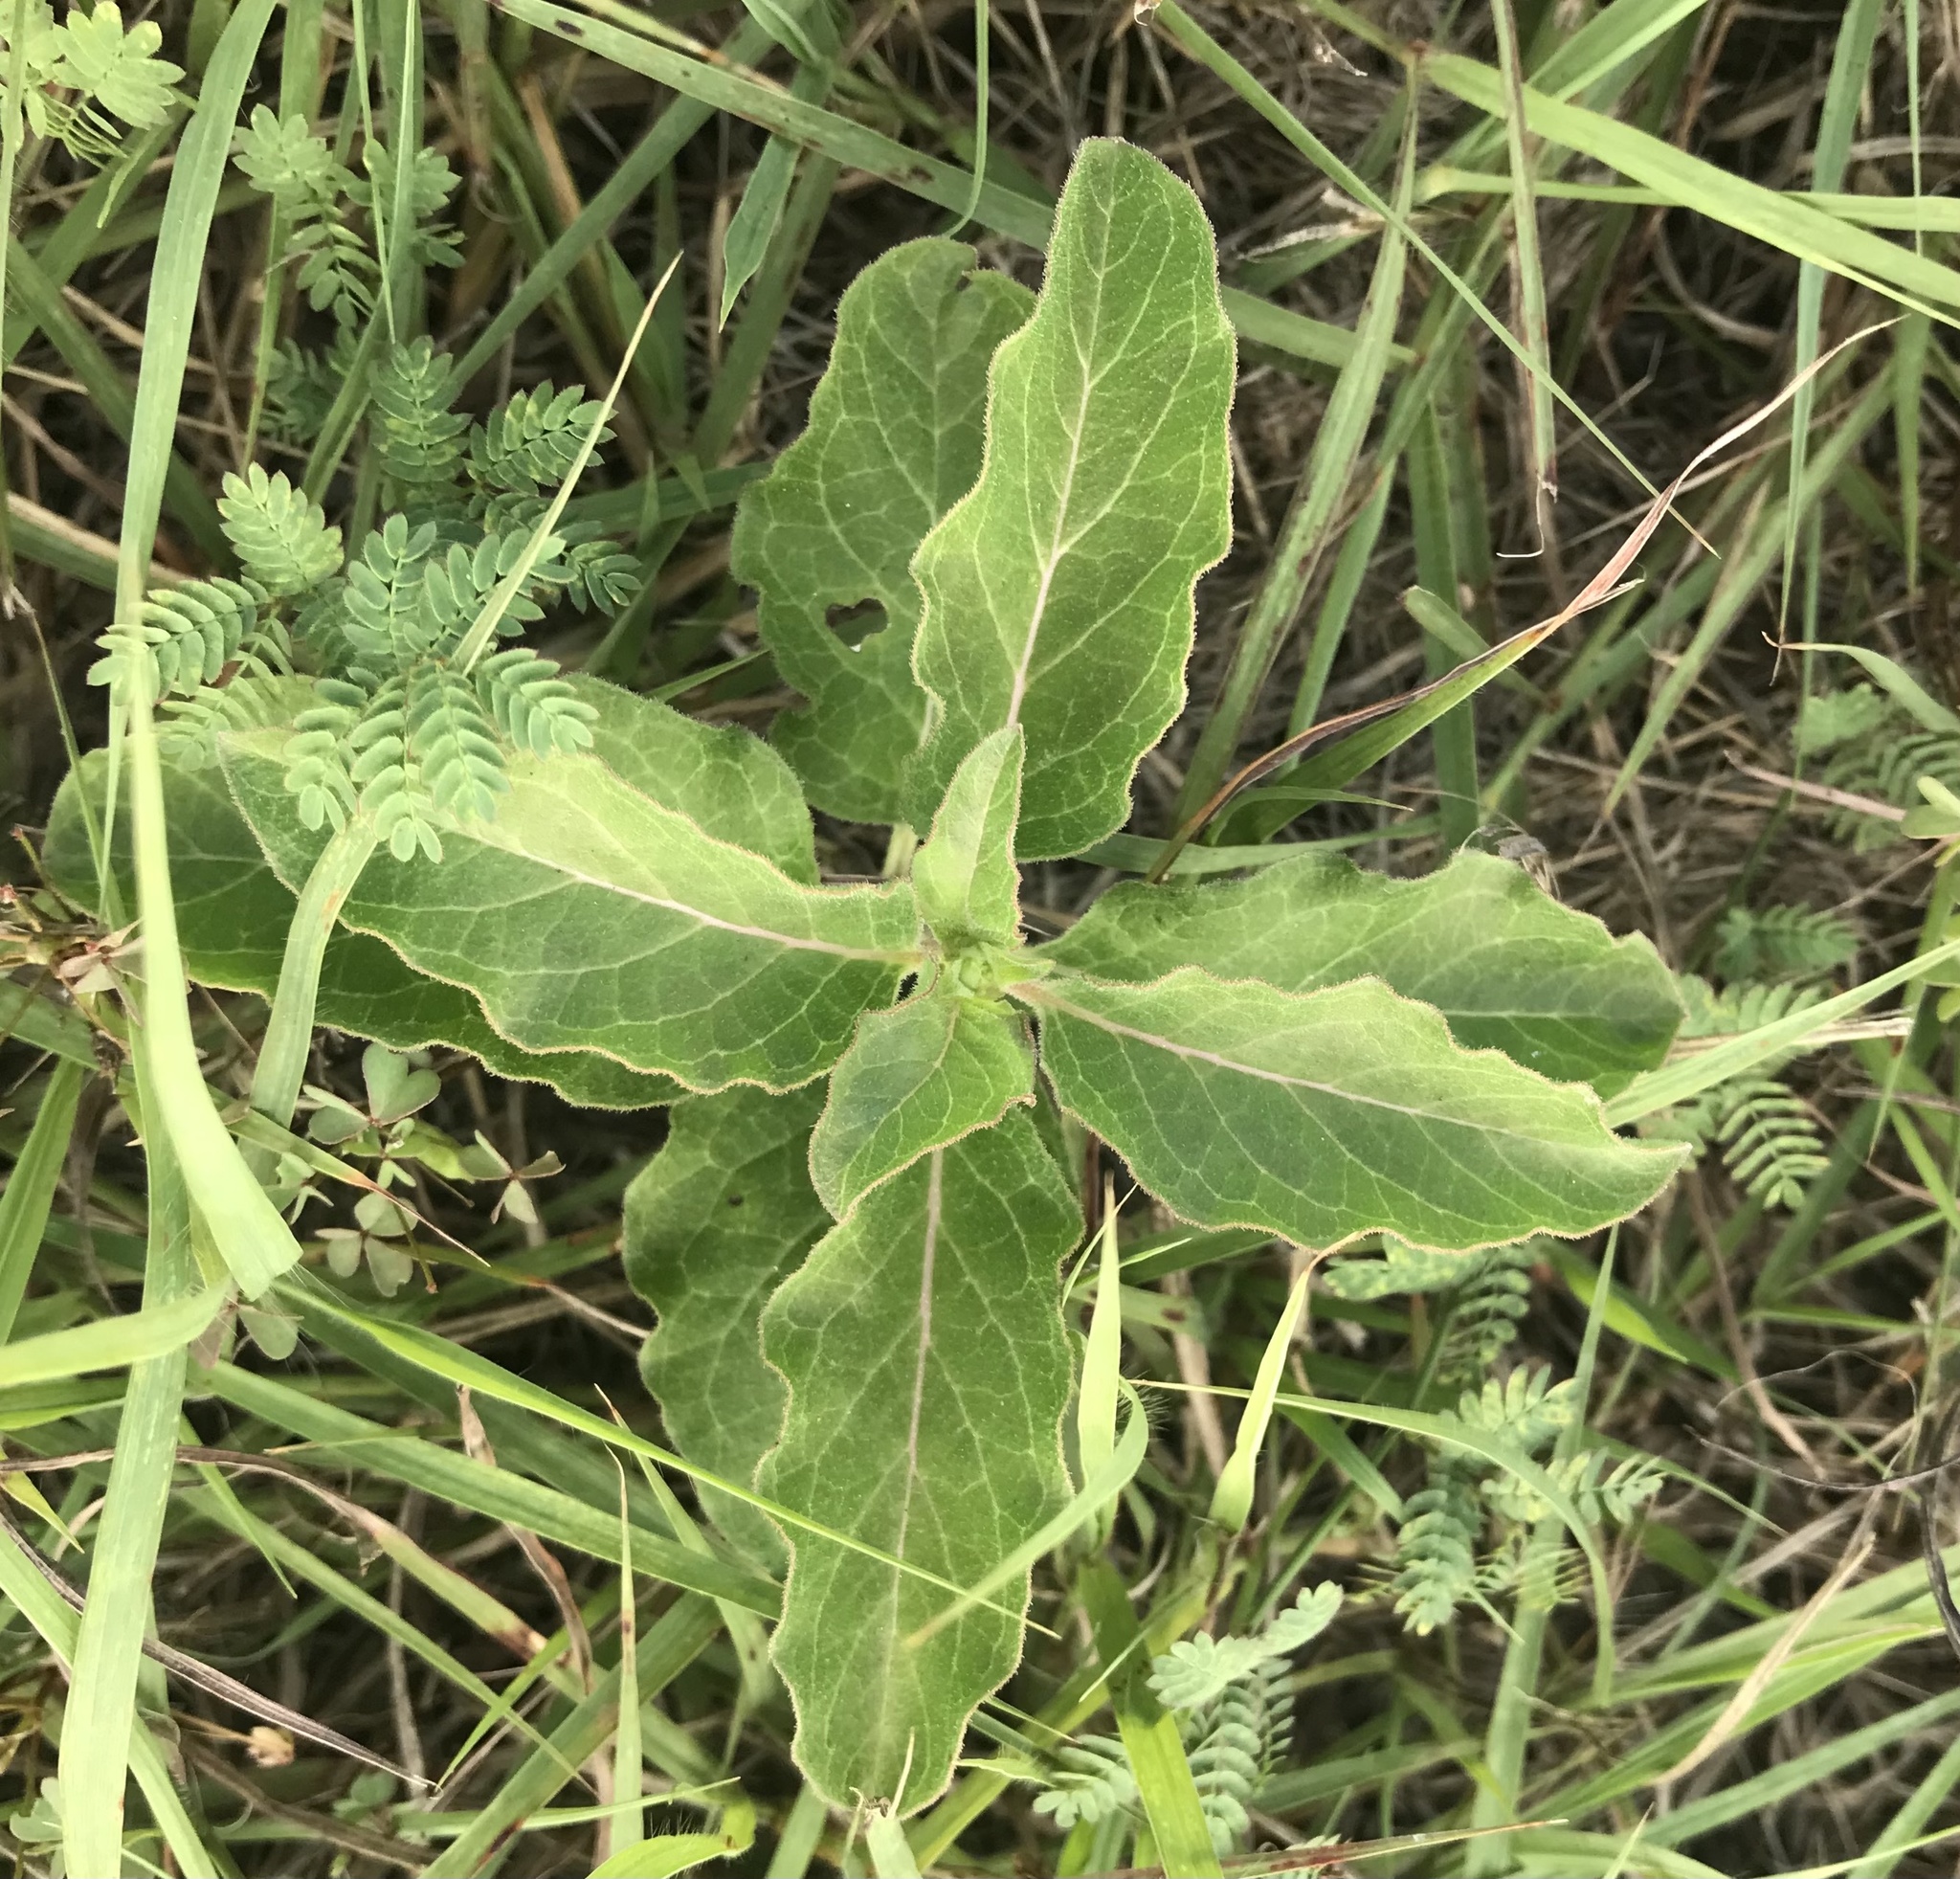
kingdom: Plantae
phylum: Tracheophyta
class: Magnoliopsida
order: Gentianales
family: Apocynaceae
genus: Asclepias
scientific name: Asclepias oenotheroides
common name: Zizotes milkweed
